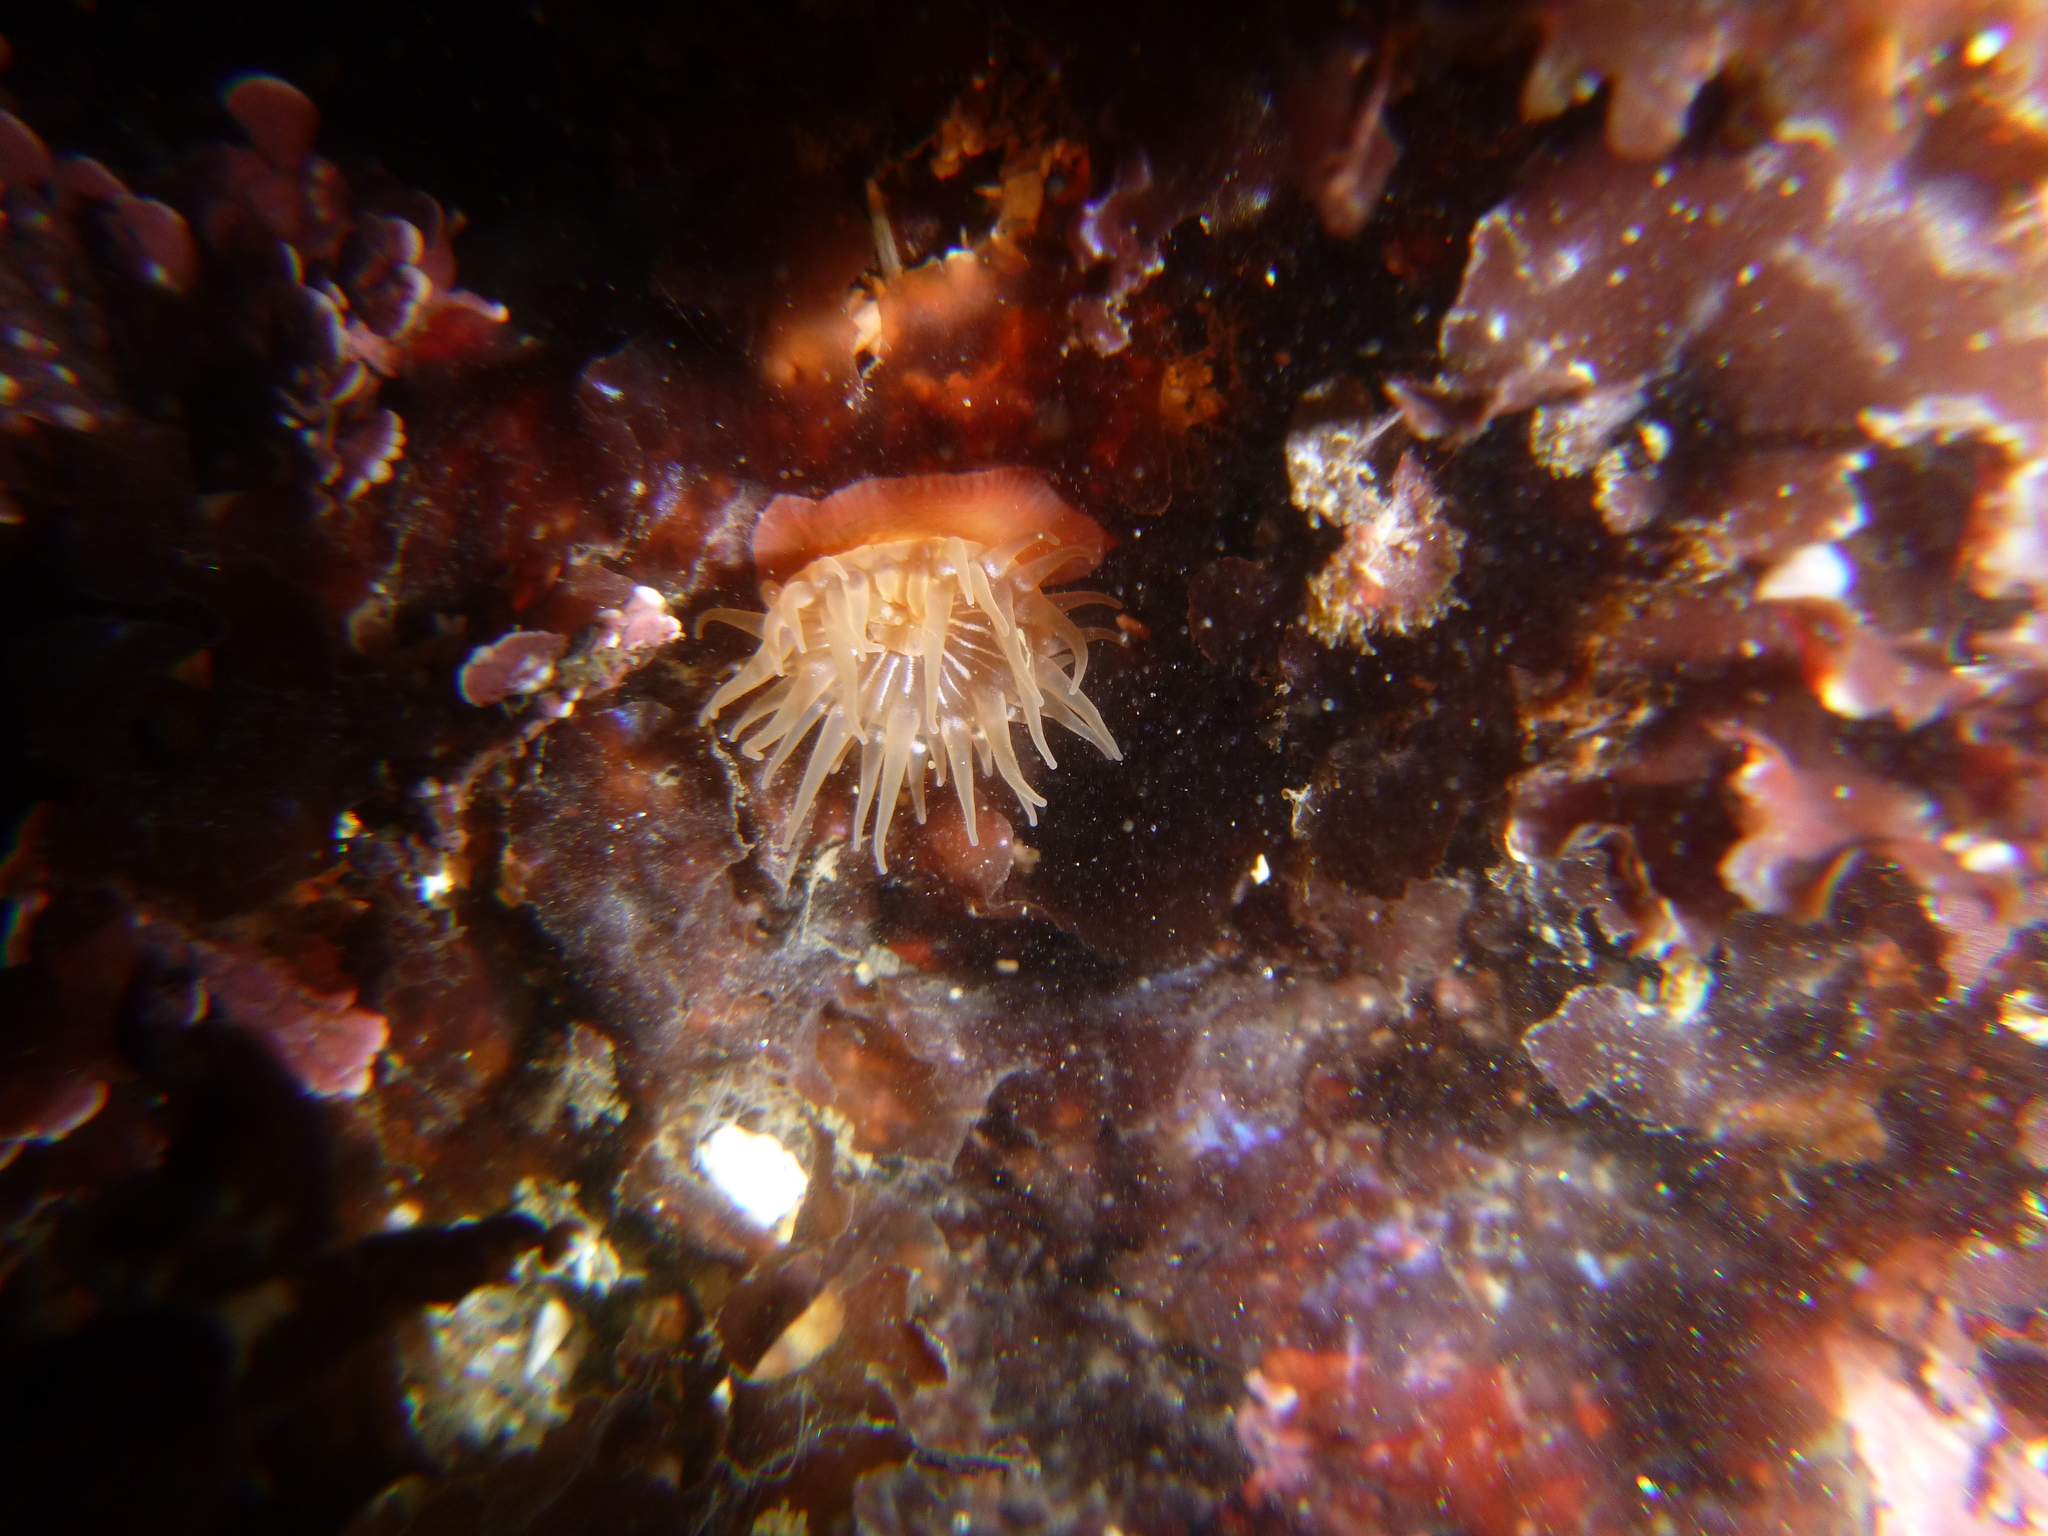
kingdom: Animalia
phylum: Cnidaria
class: Anthozoa
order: Actiniaria
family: Actiniidae
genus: Epiactis
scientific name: Epiactis prolifera
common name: Brooding anemone
